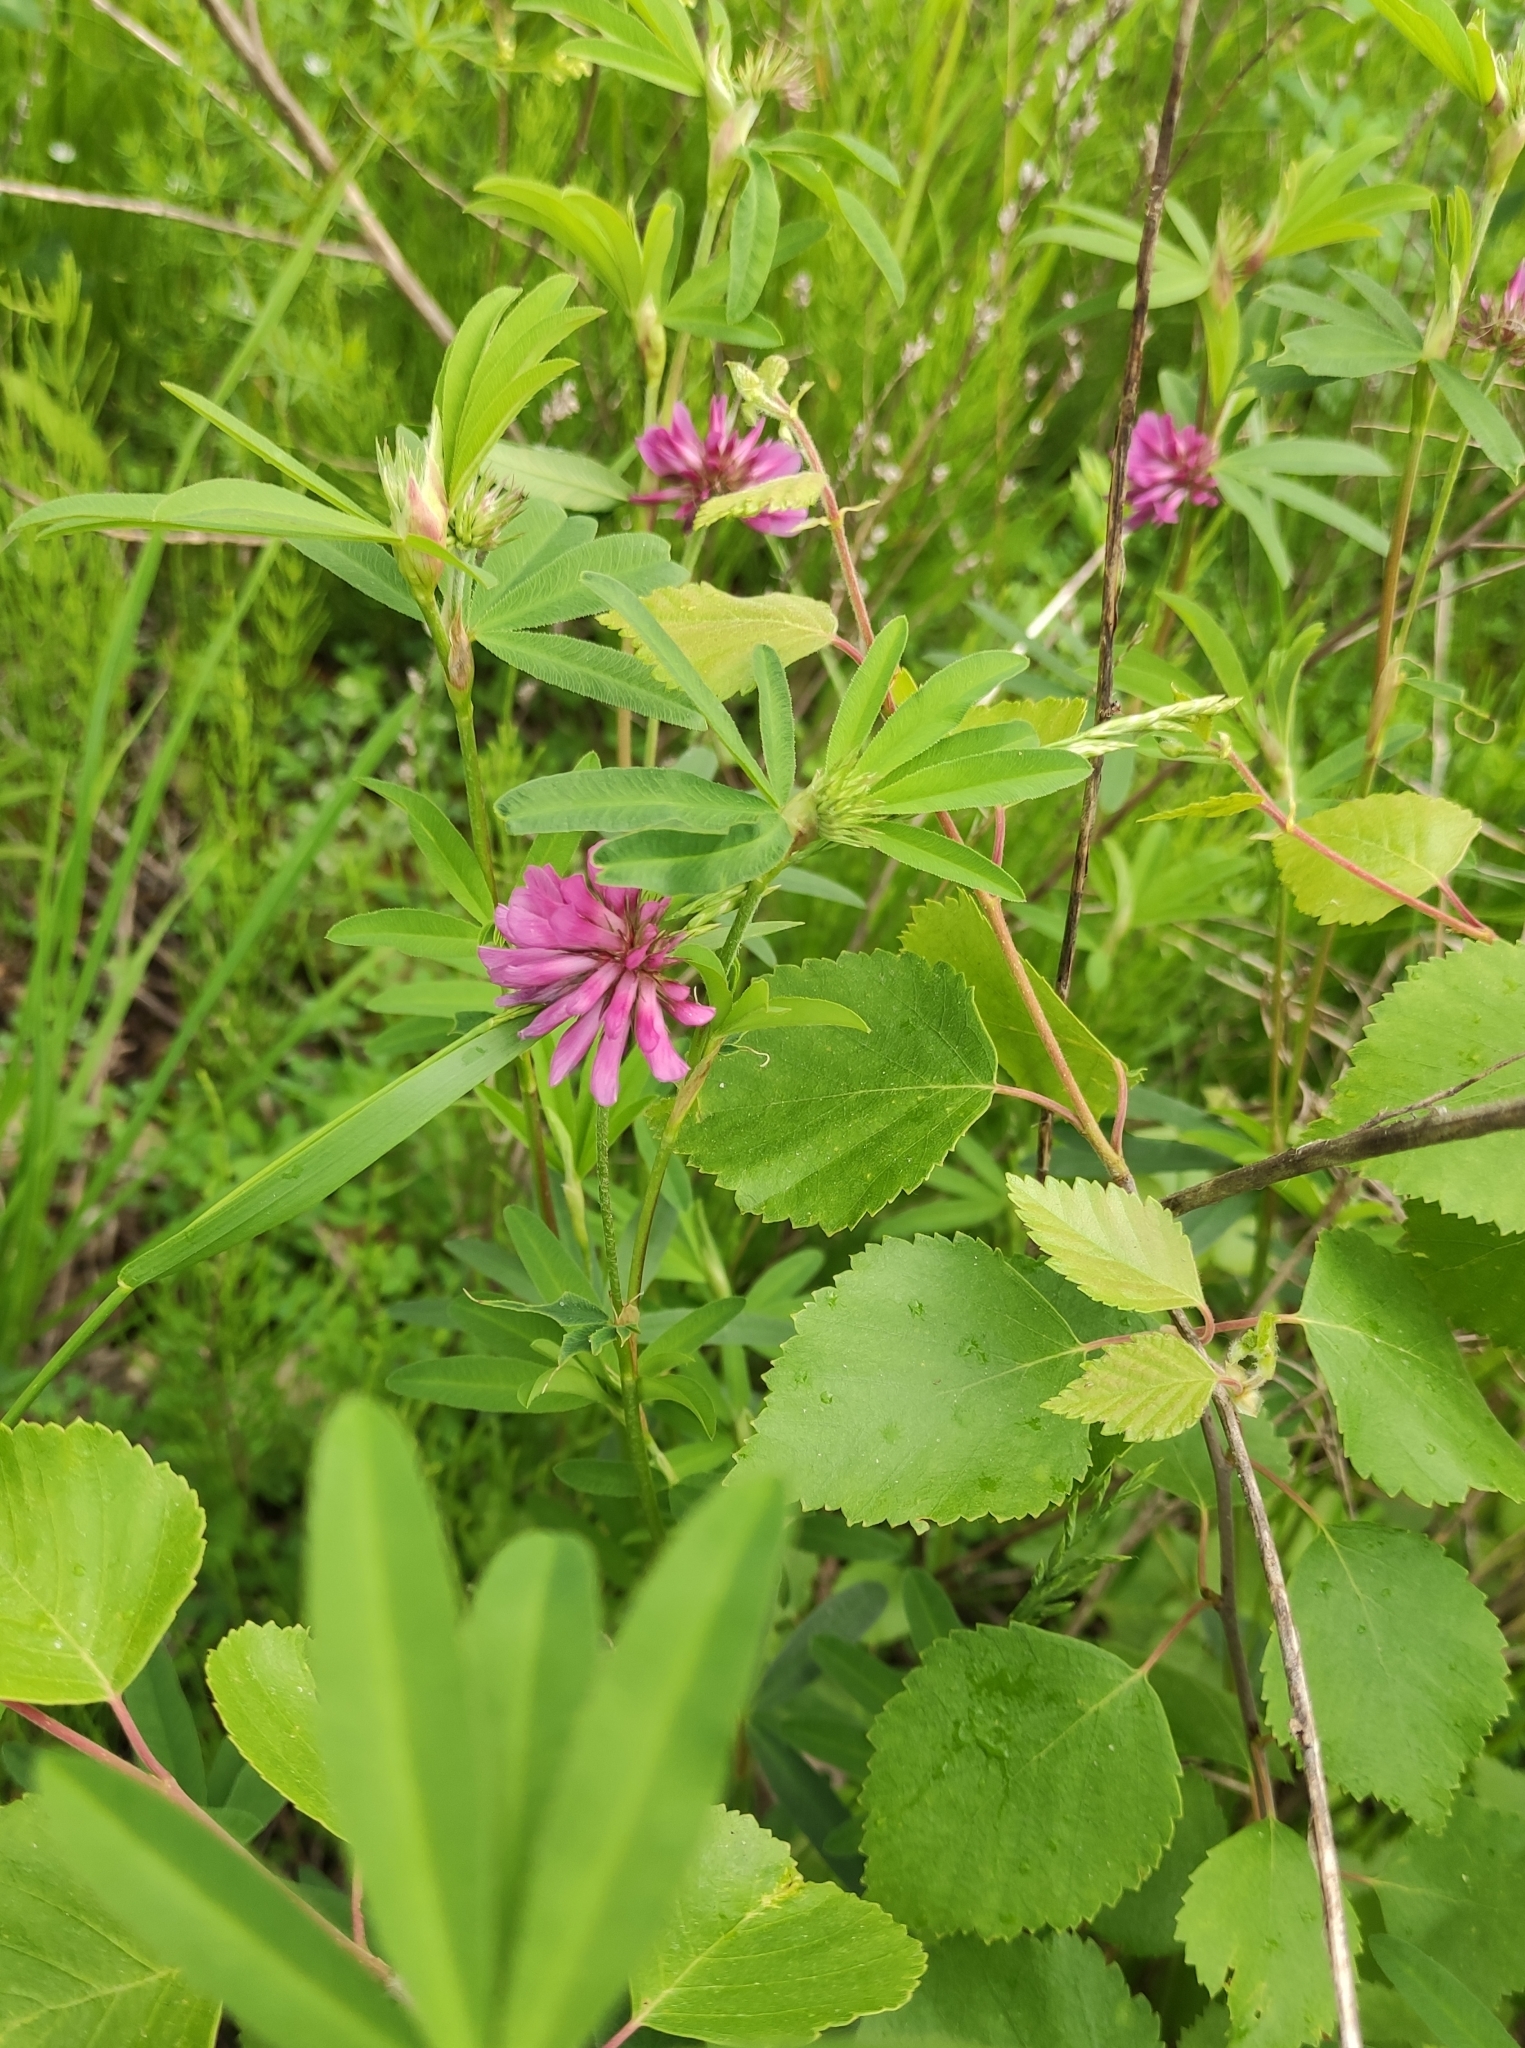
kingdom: Plantae
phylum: Tracheophyta
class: Magnoliopsida
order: Fabales
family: Fabaceae
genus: Trifolium
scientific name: Trifolium lupinaster
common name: Lupine clover
